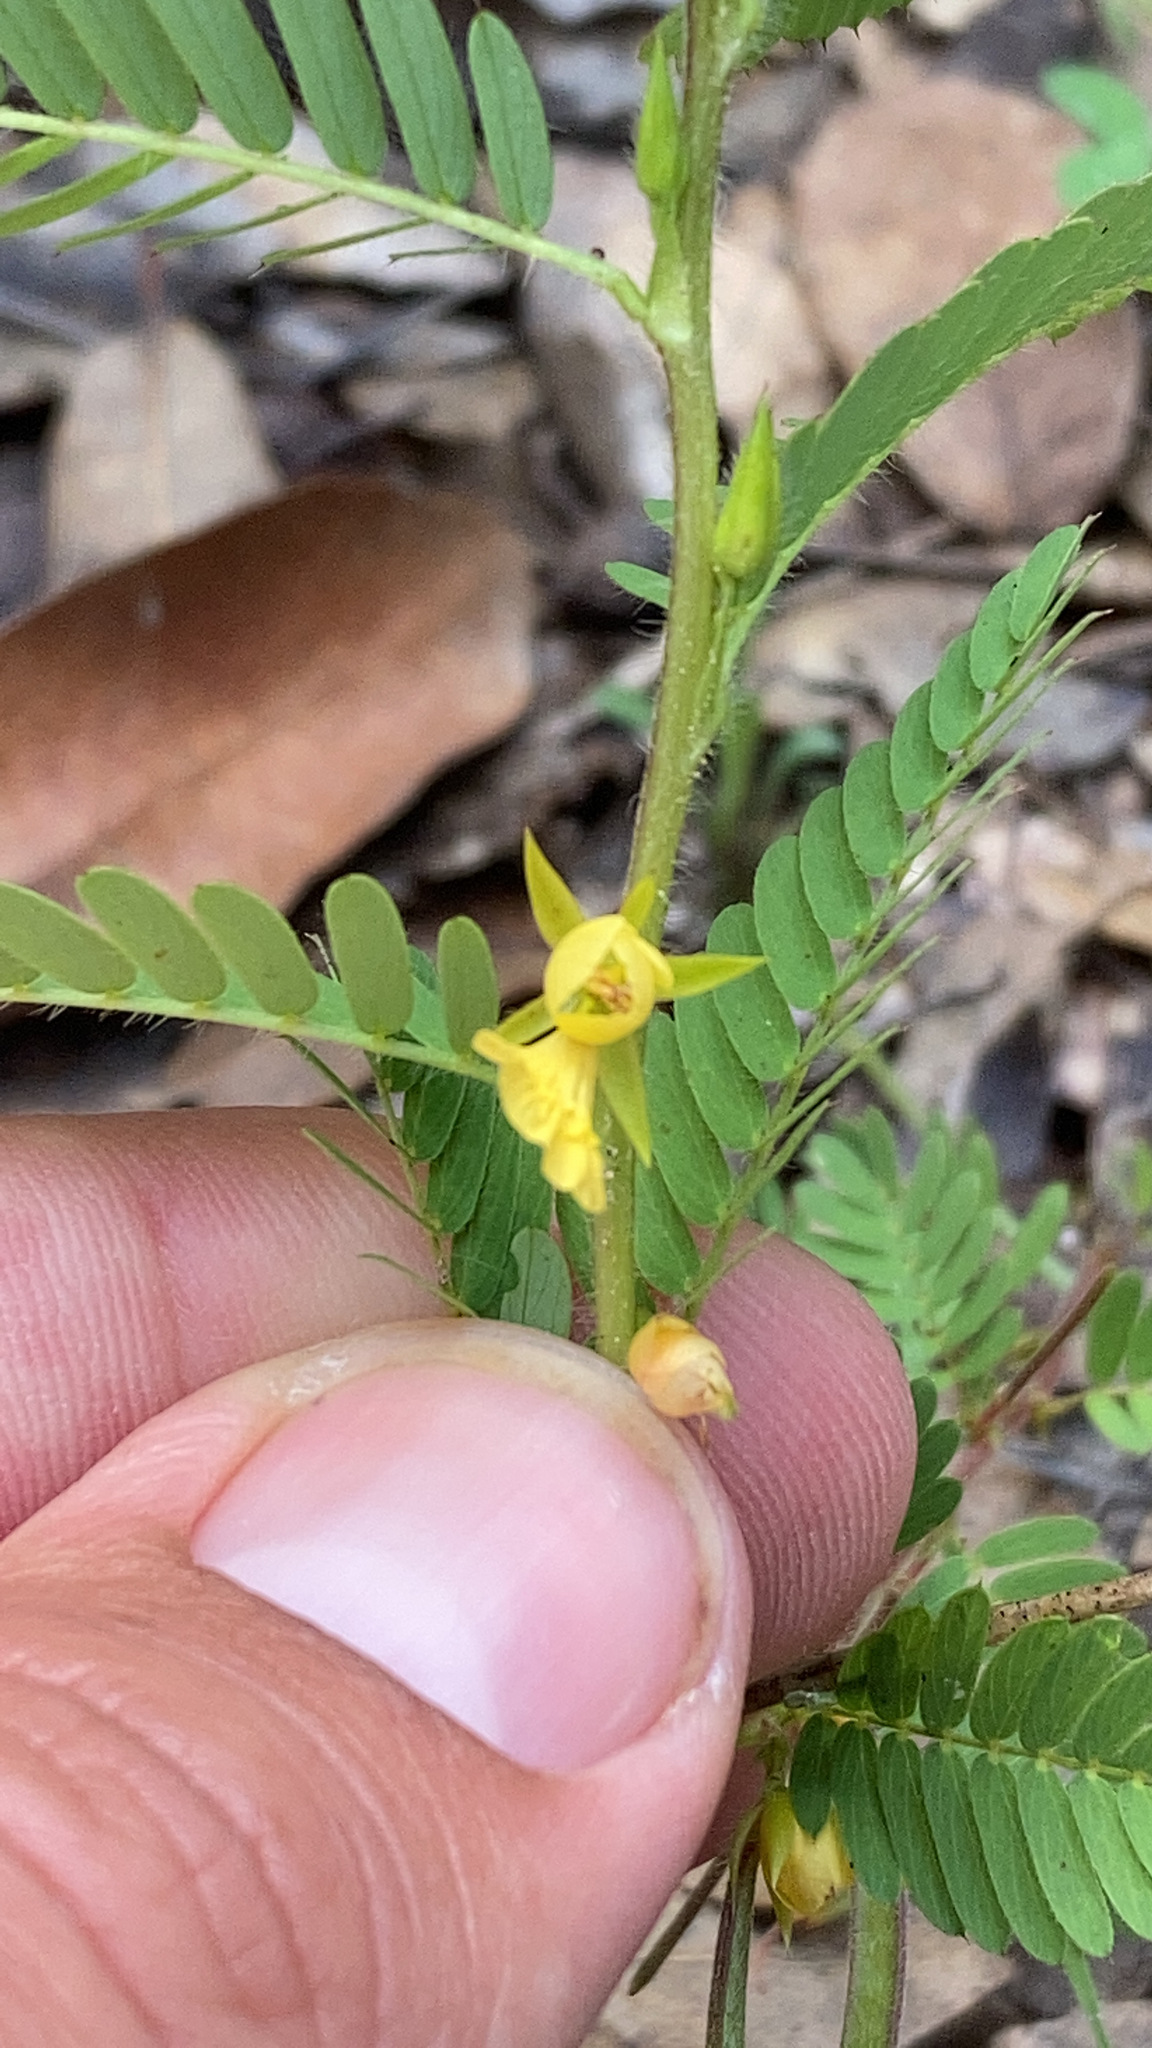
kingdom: Plantae
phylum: Tracheophyta
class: Magnoliopsida
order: Fabales
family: Fabaceae
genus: Chamaecrista
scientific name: Chamaecrista nictitans
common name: Sensitive cassia
